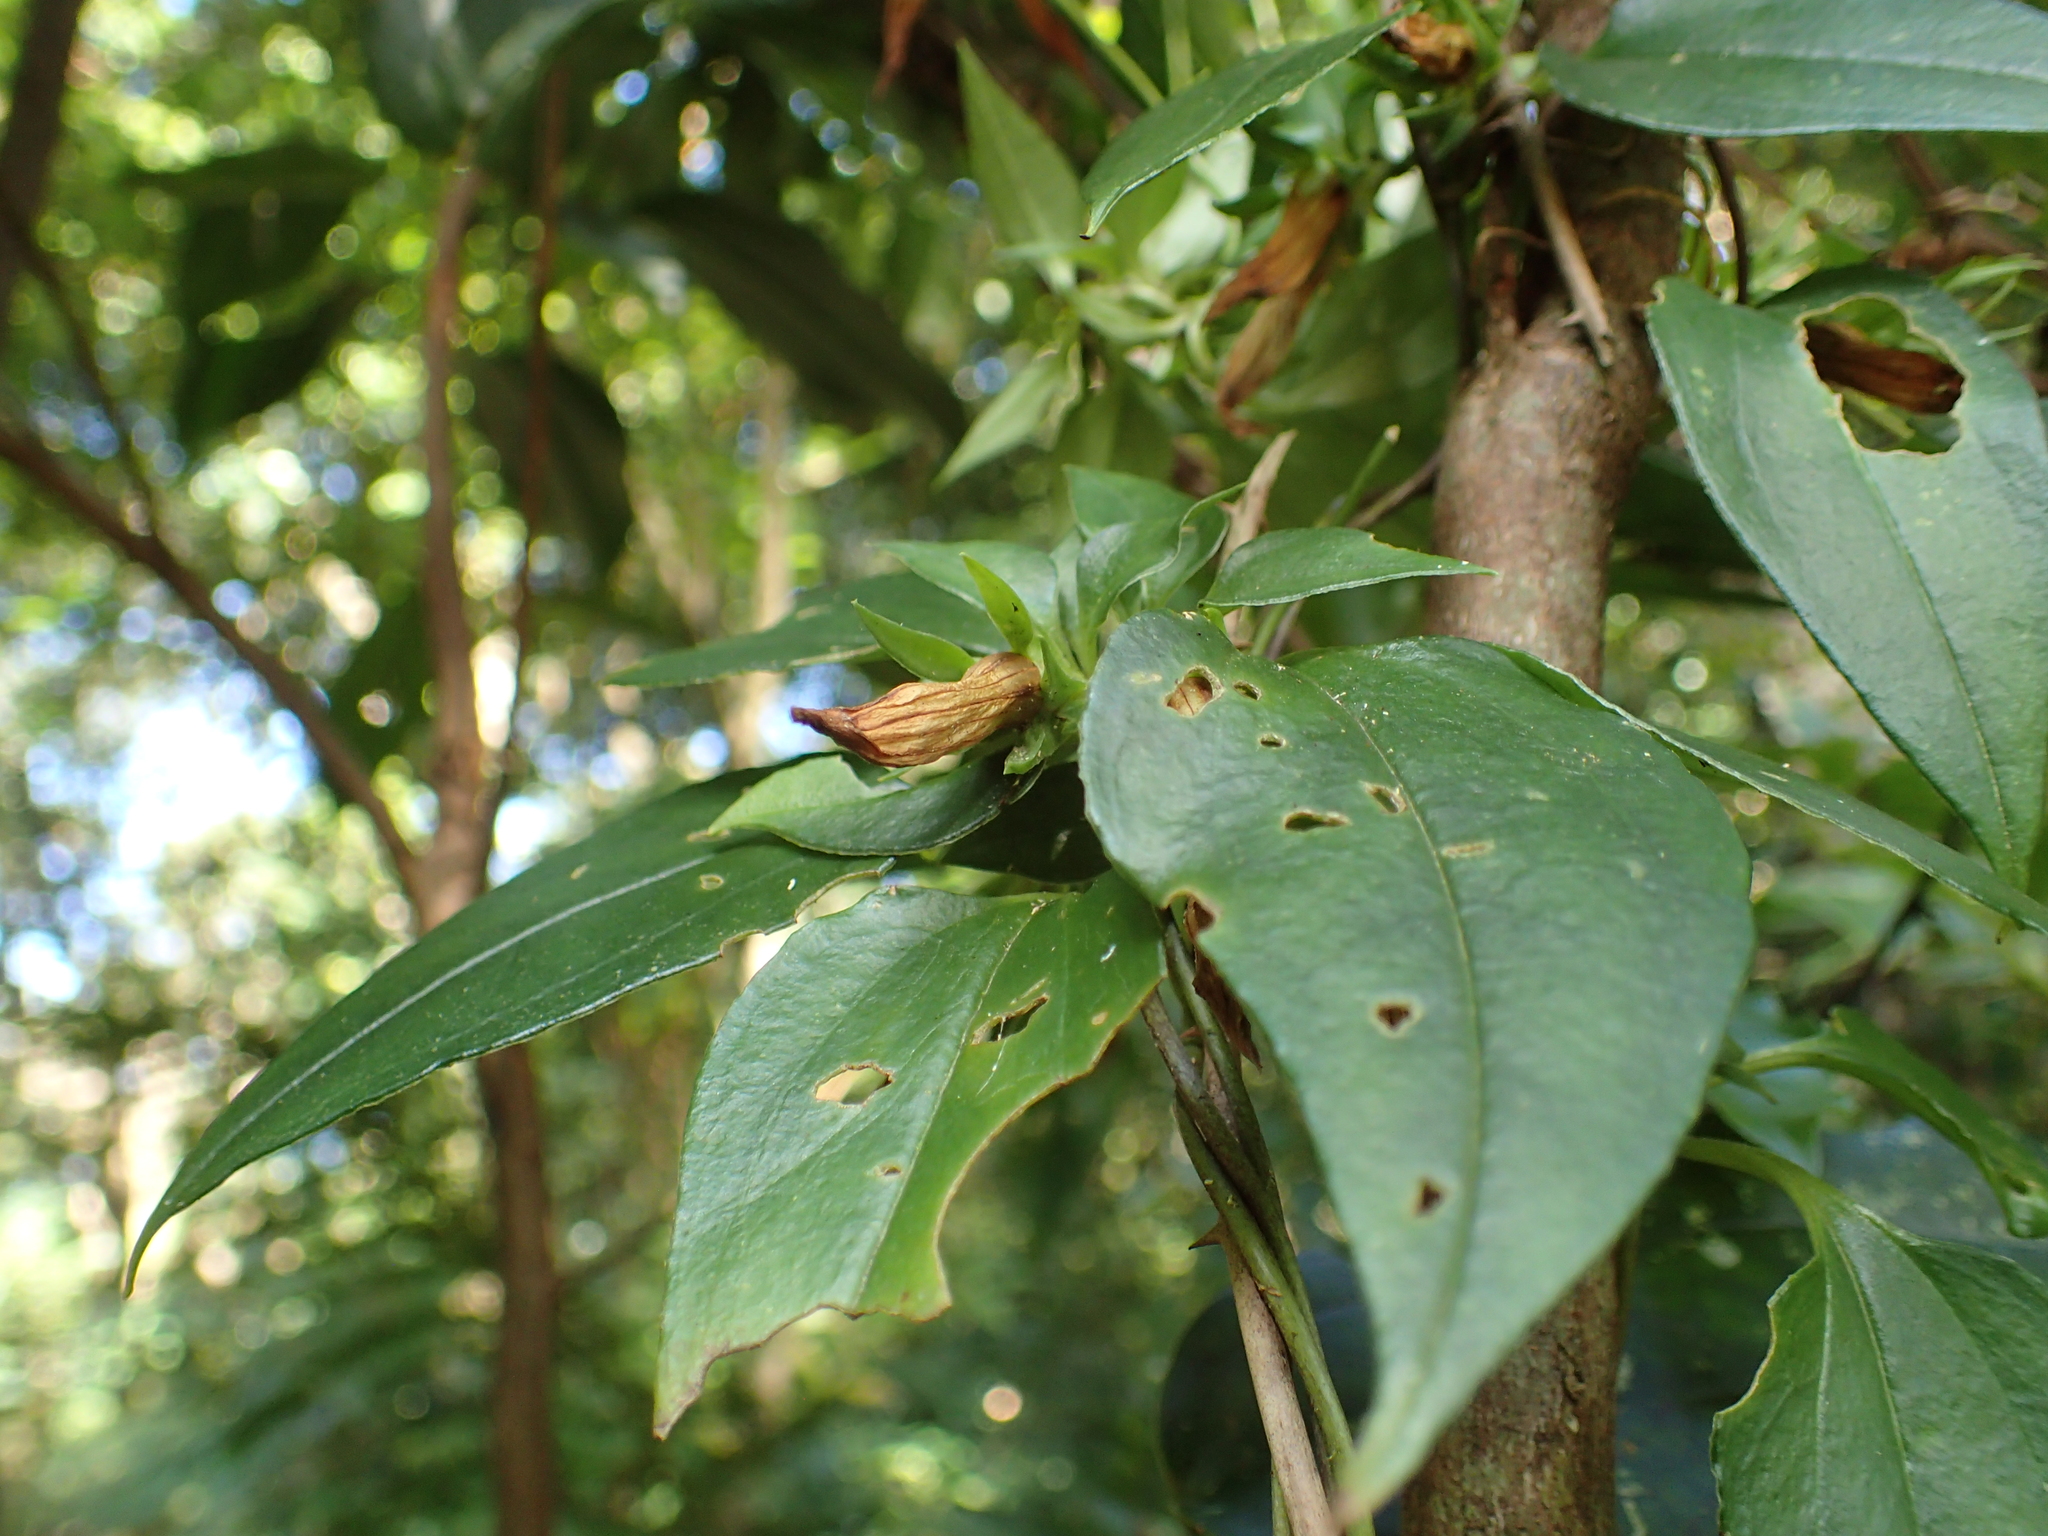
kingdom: Plantae
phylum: Tracheophyta
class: Magnoliopsida
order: Gentianales
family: Gentianaceae
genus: Tripterospermum
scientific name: Tripterospermum alutaceifolium
